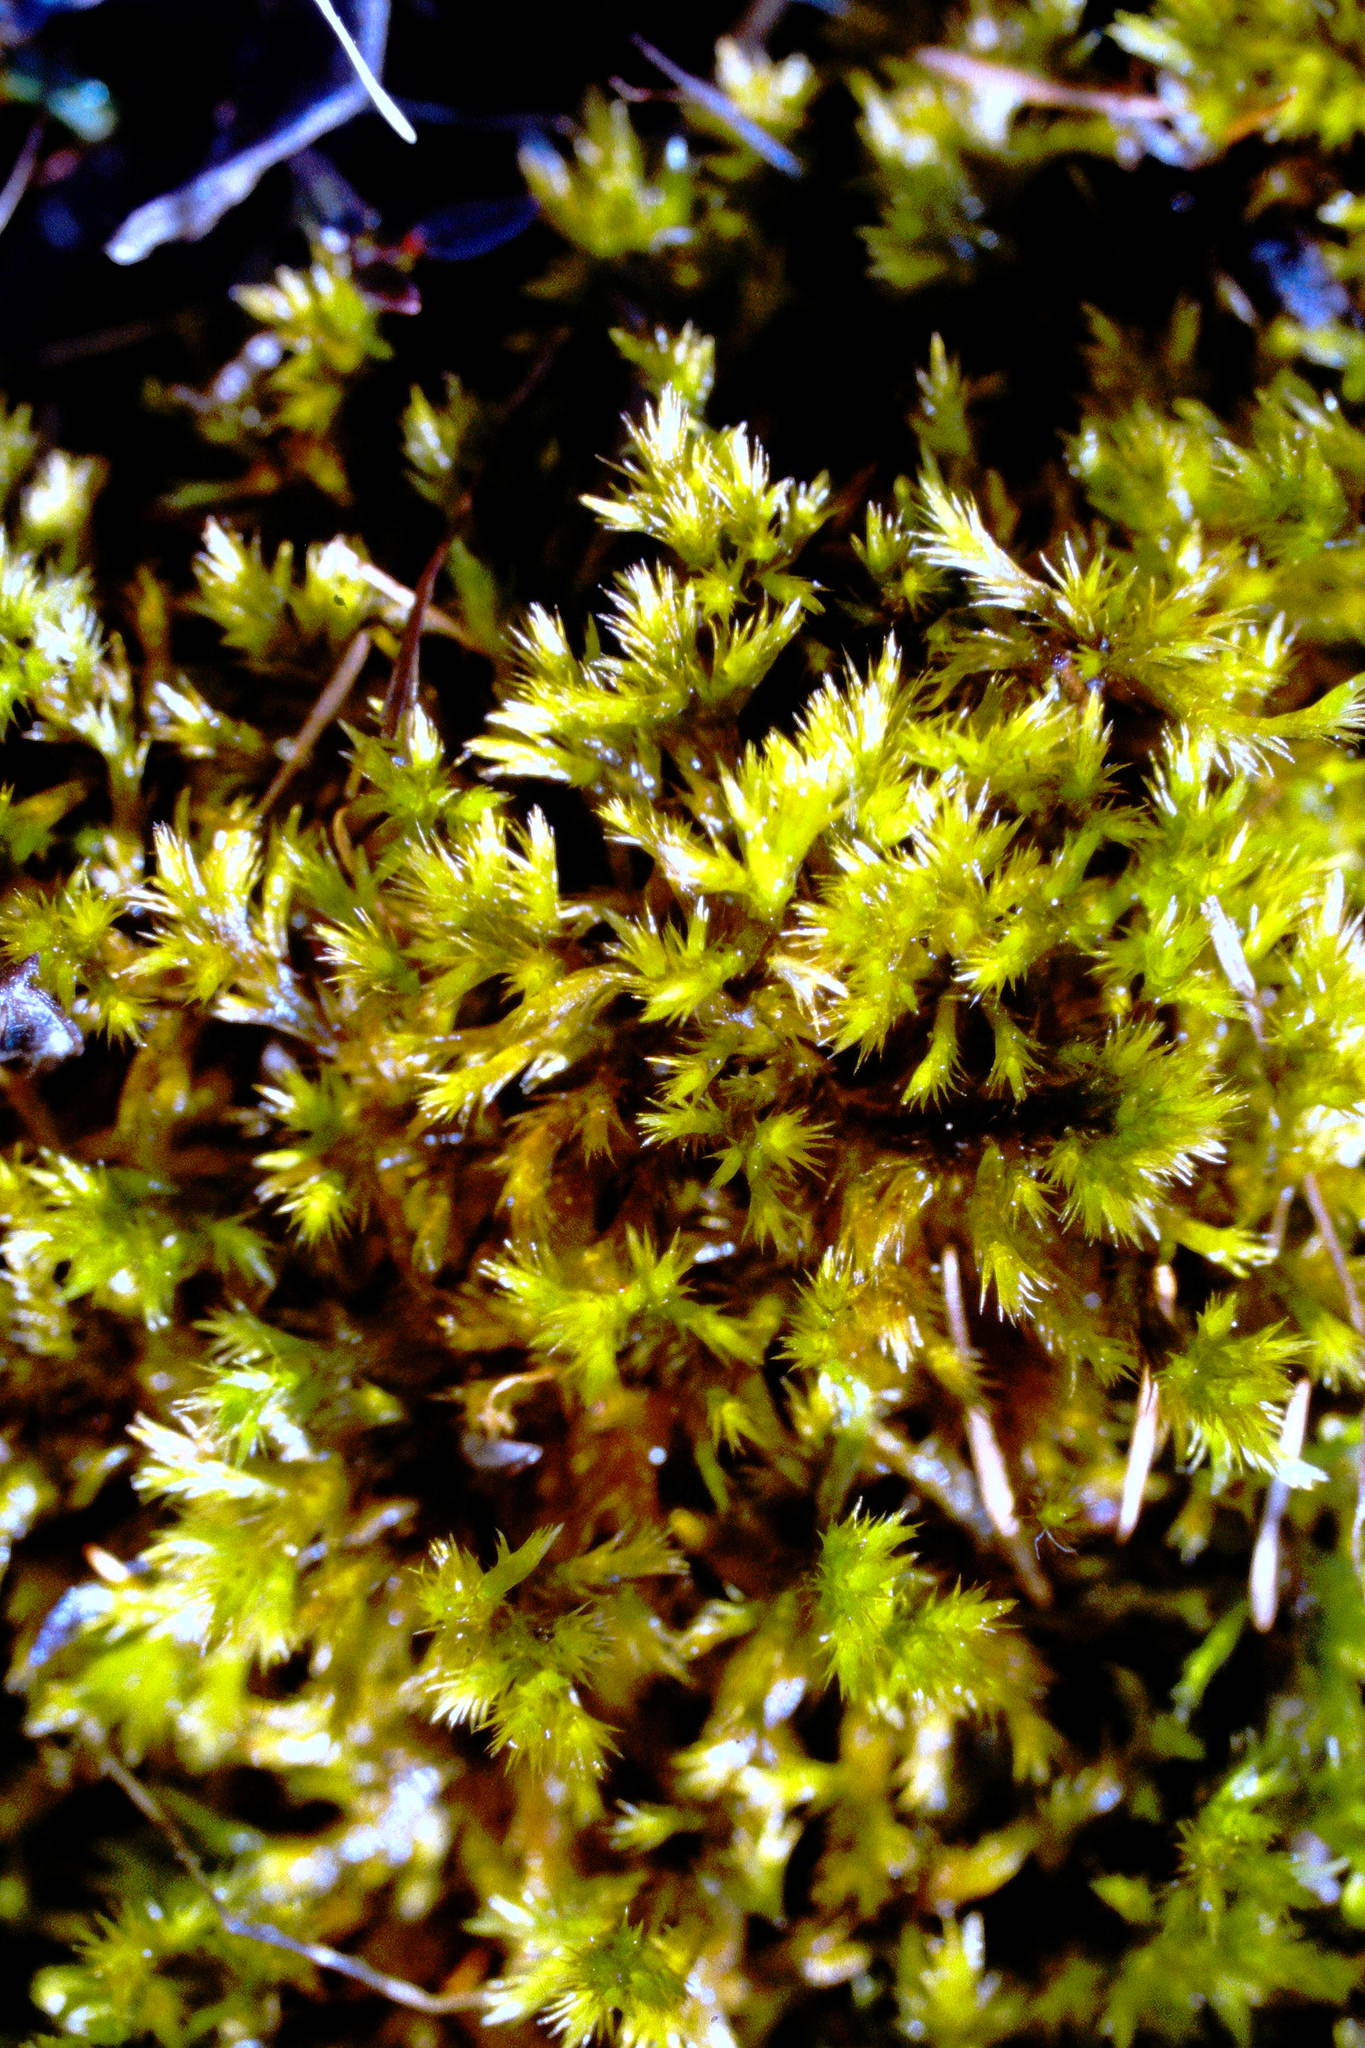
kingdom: Plantae
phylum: Bryophyta
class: Bryopsida
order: Hypnales
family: Amblystegiaceae
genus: Tomentypnum
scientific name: Tomentypnum nitens
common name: Golden fuzzy fen moss
